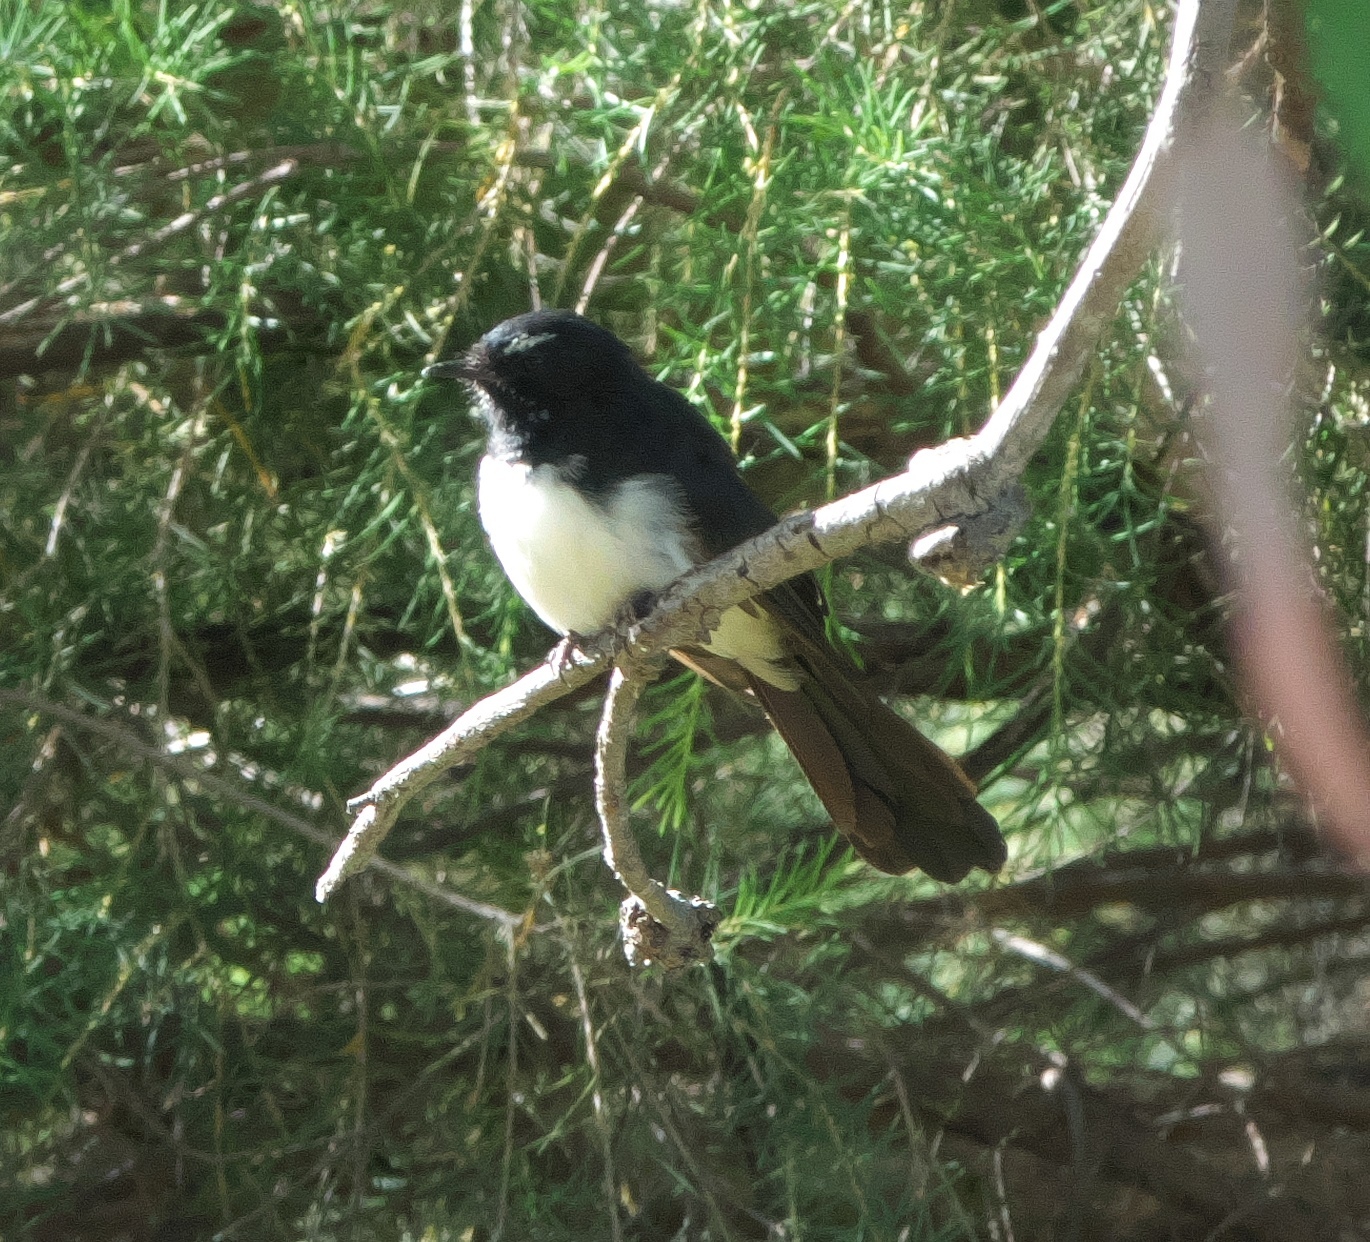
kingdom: Animalia
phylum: Chordata
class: Aves
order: Passeriformes
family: Rhipiduridae
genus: Rhipidura
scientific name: Rhipidura leucophrys
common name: Willie wagtail
